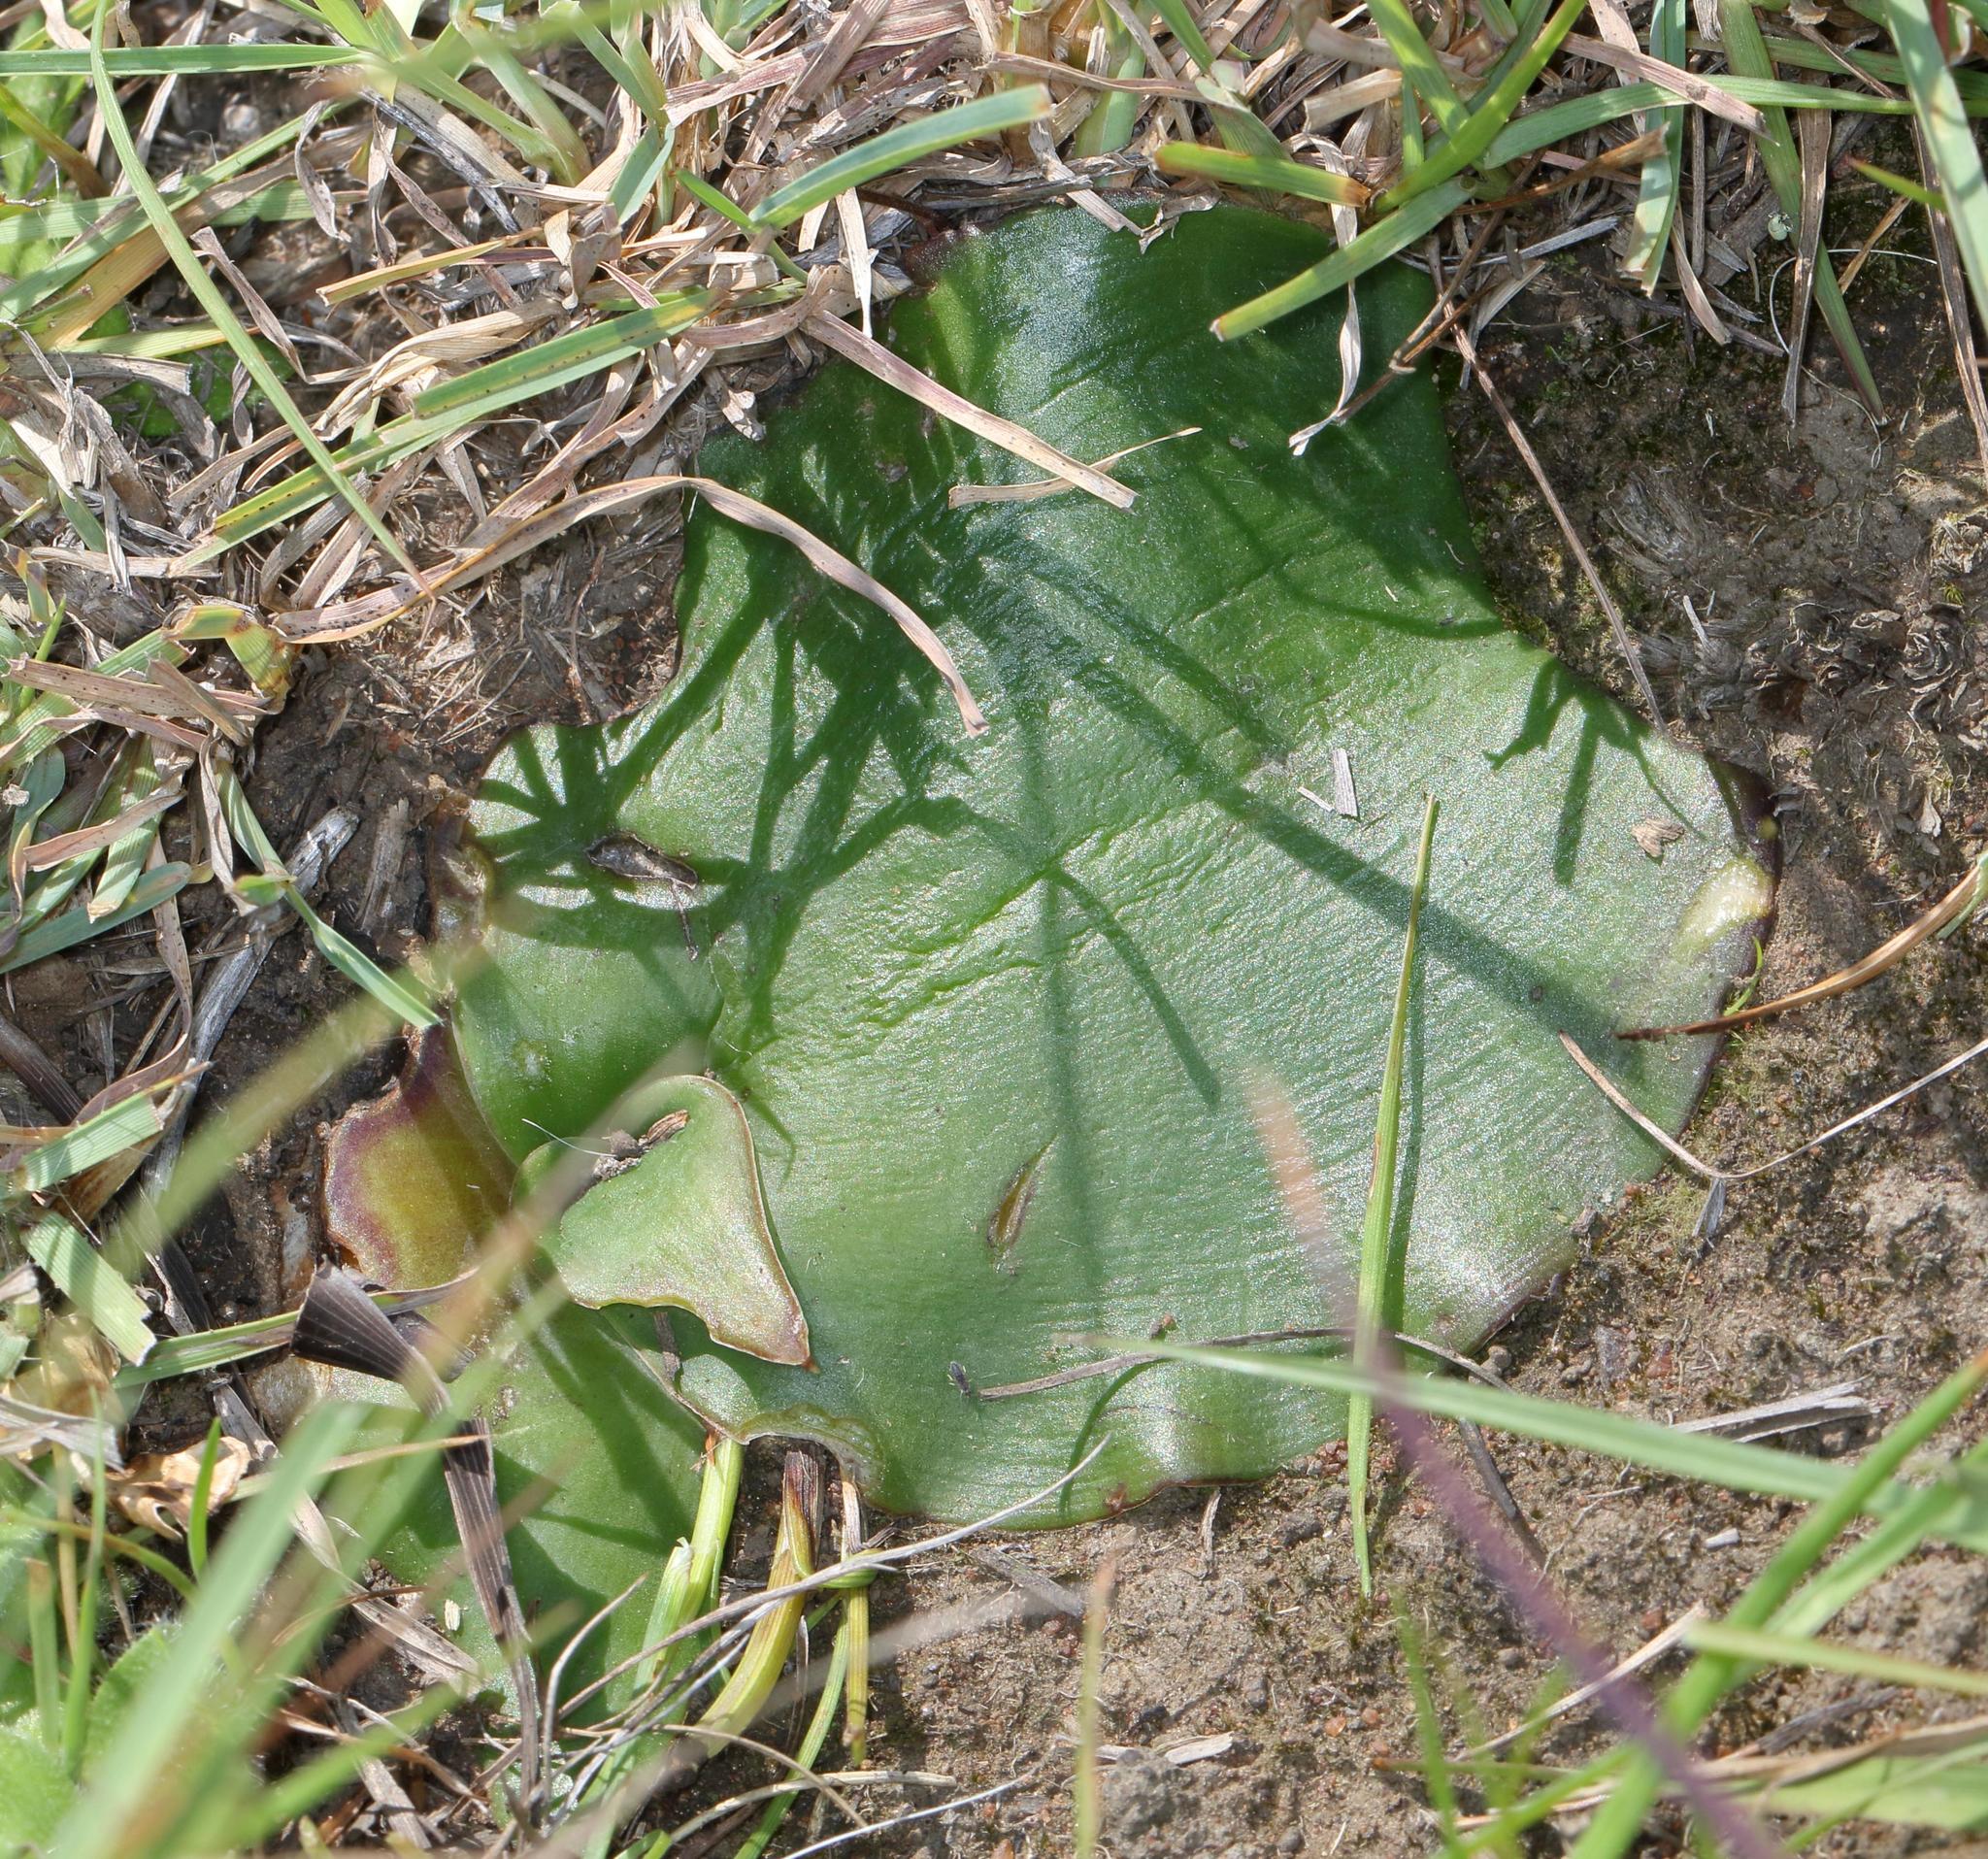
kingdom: Plantae
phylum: Tracheophyta
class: Liliopsida
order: Asparagales
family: Asparagaceae
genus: Ledebouria
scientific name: Ledebouria ovatifolia
